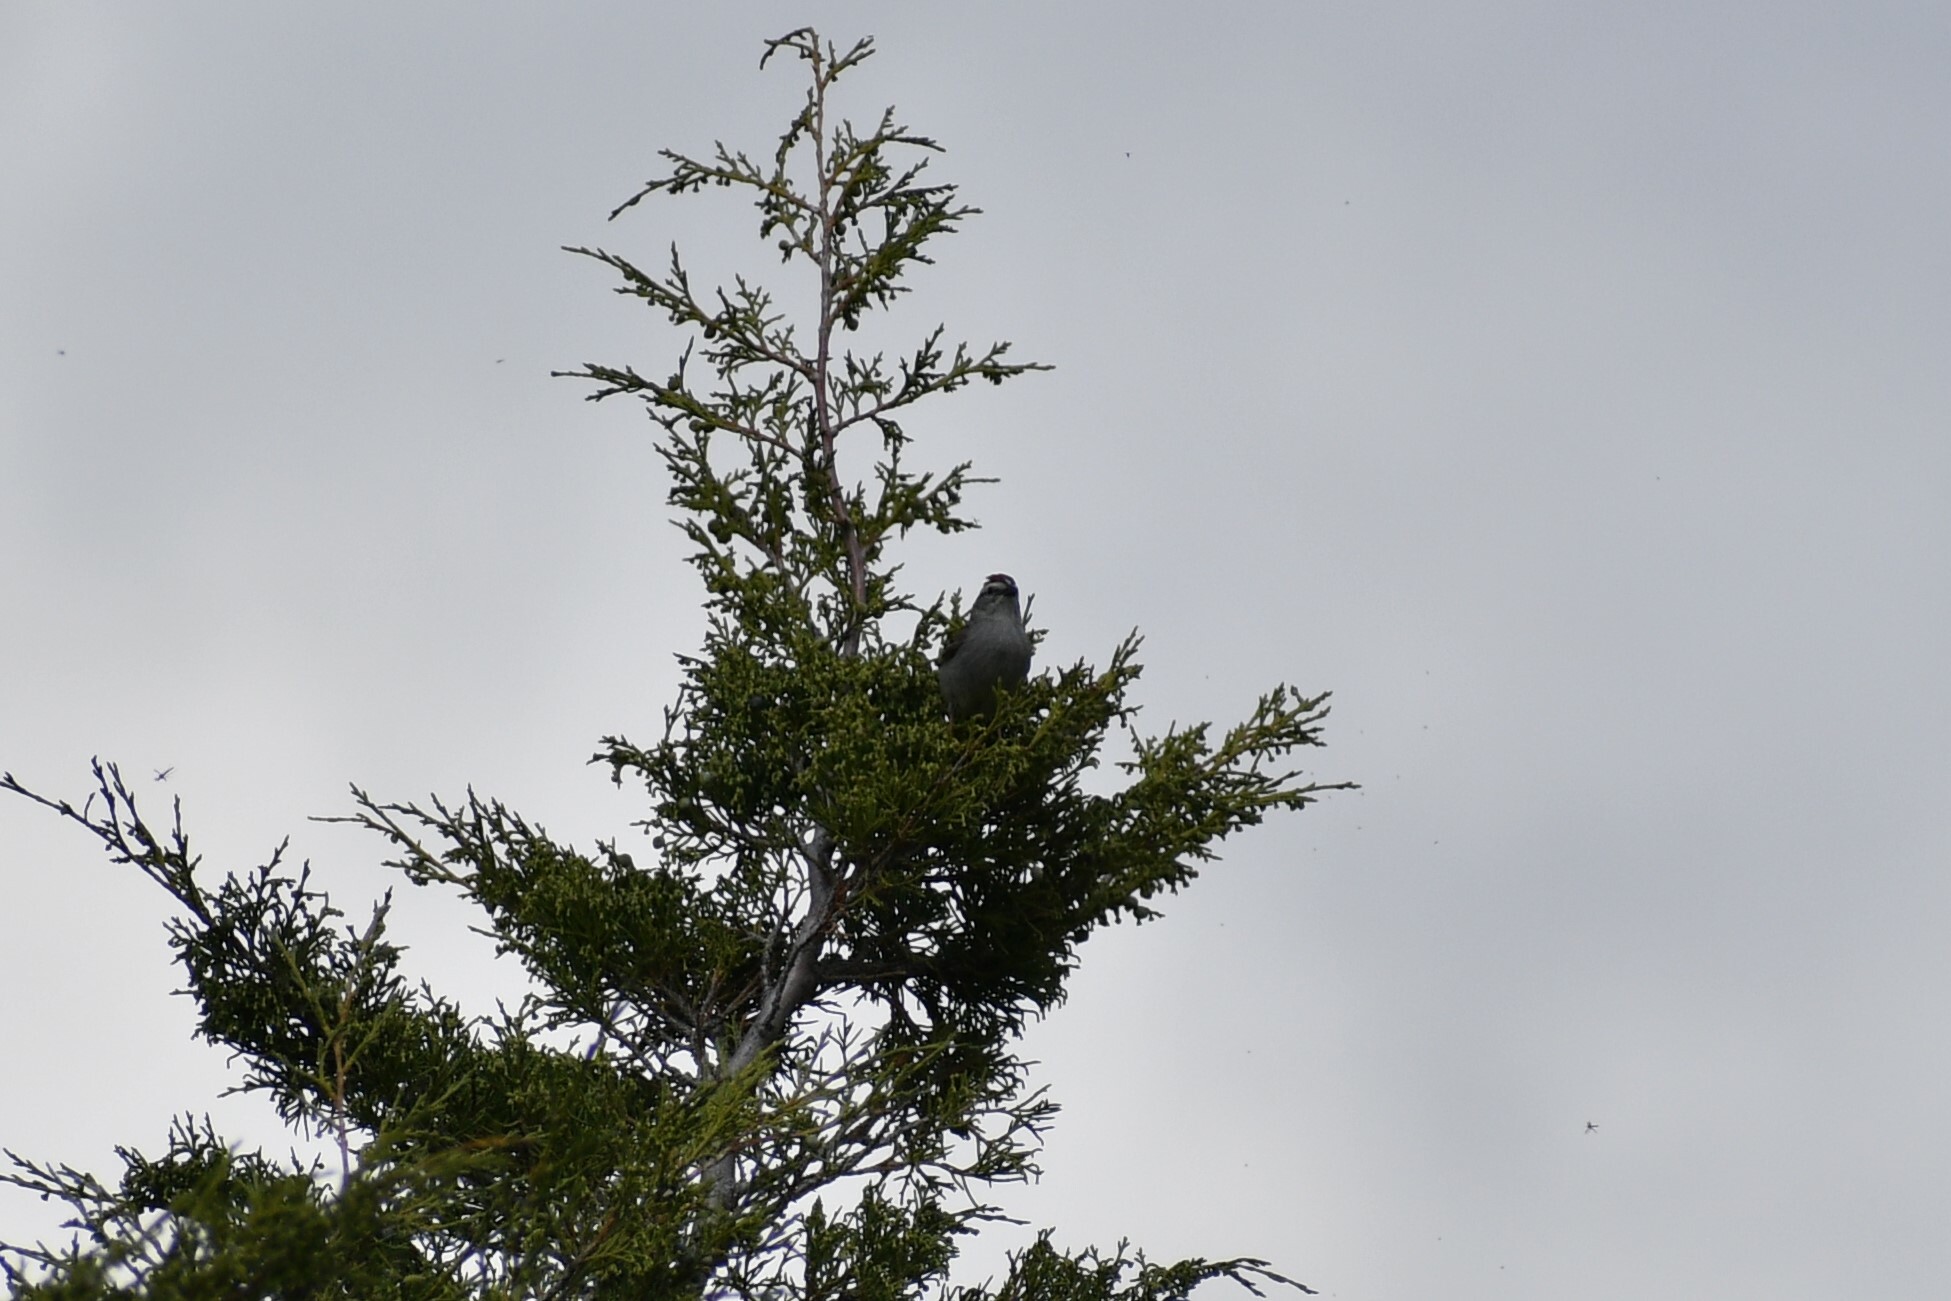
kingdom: Animalia
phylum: Chordata
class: Aves
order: Passeriformes
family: Passerellidae
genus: Spizella
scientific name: Spizella passerina
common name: Chipping sparrow
